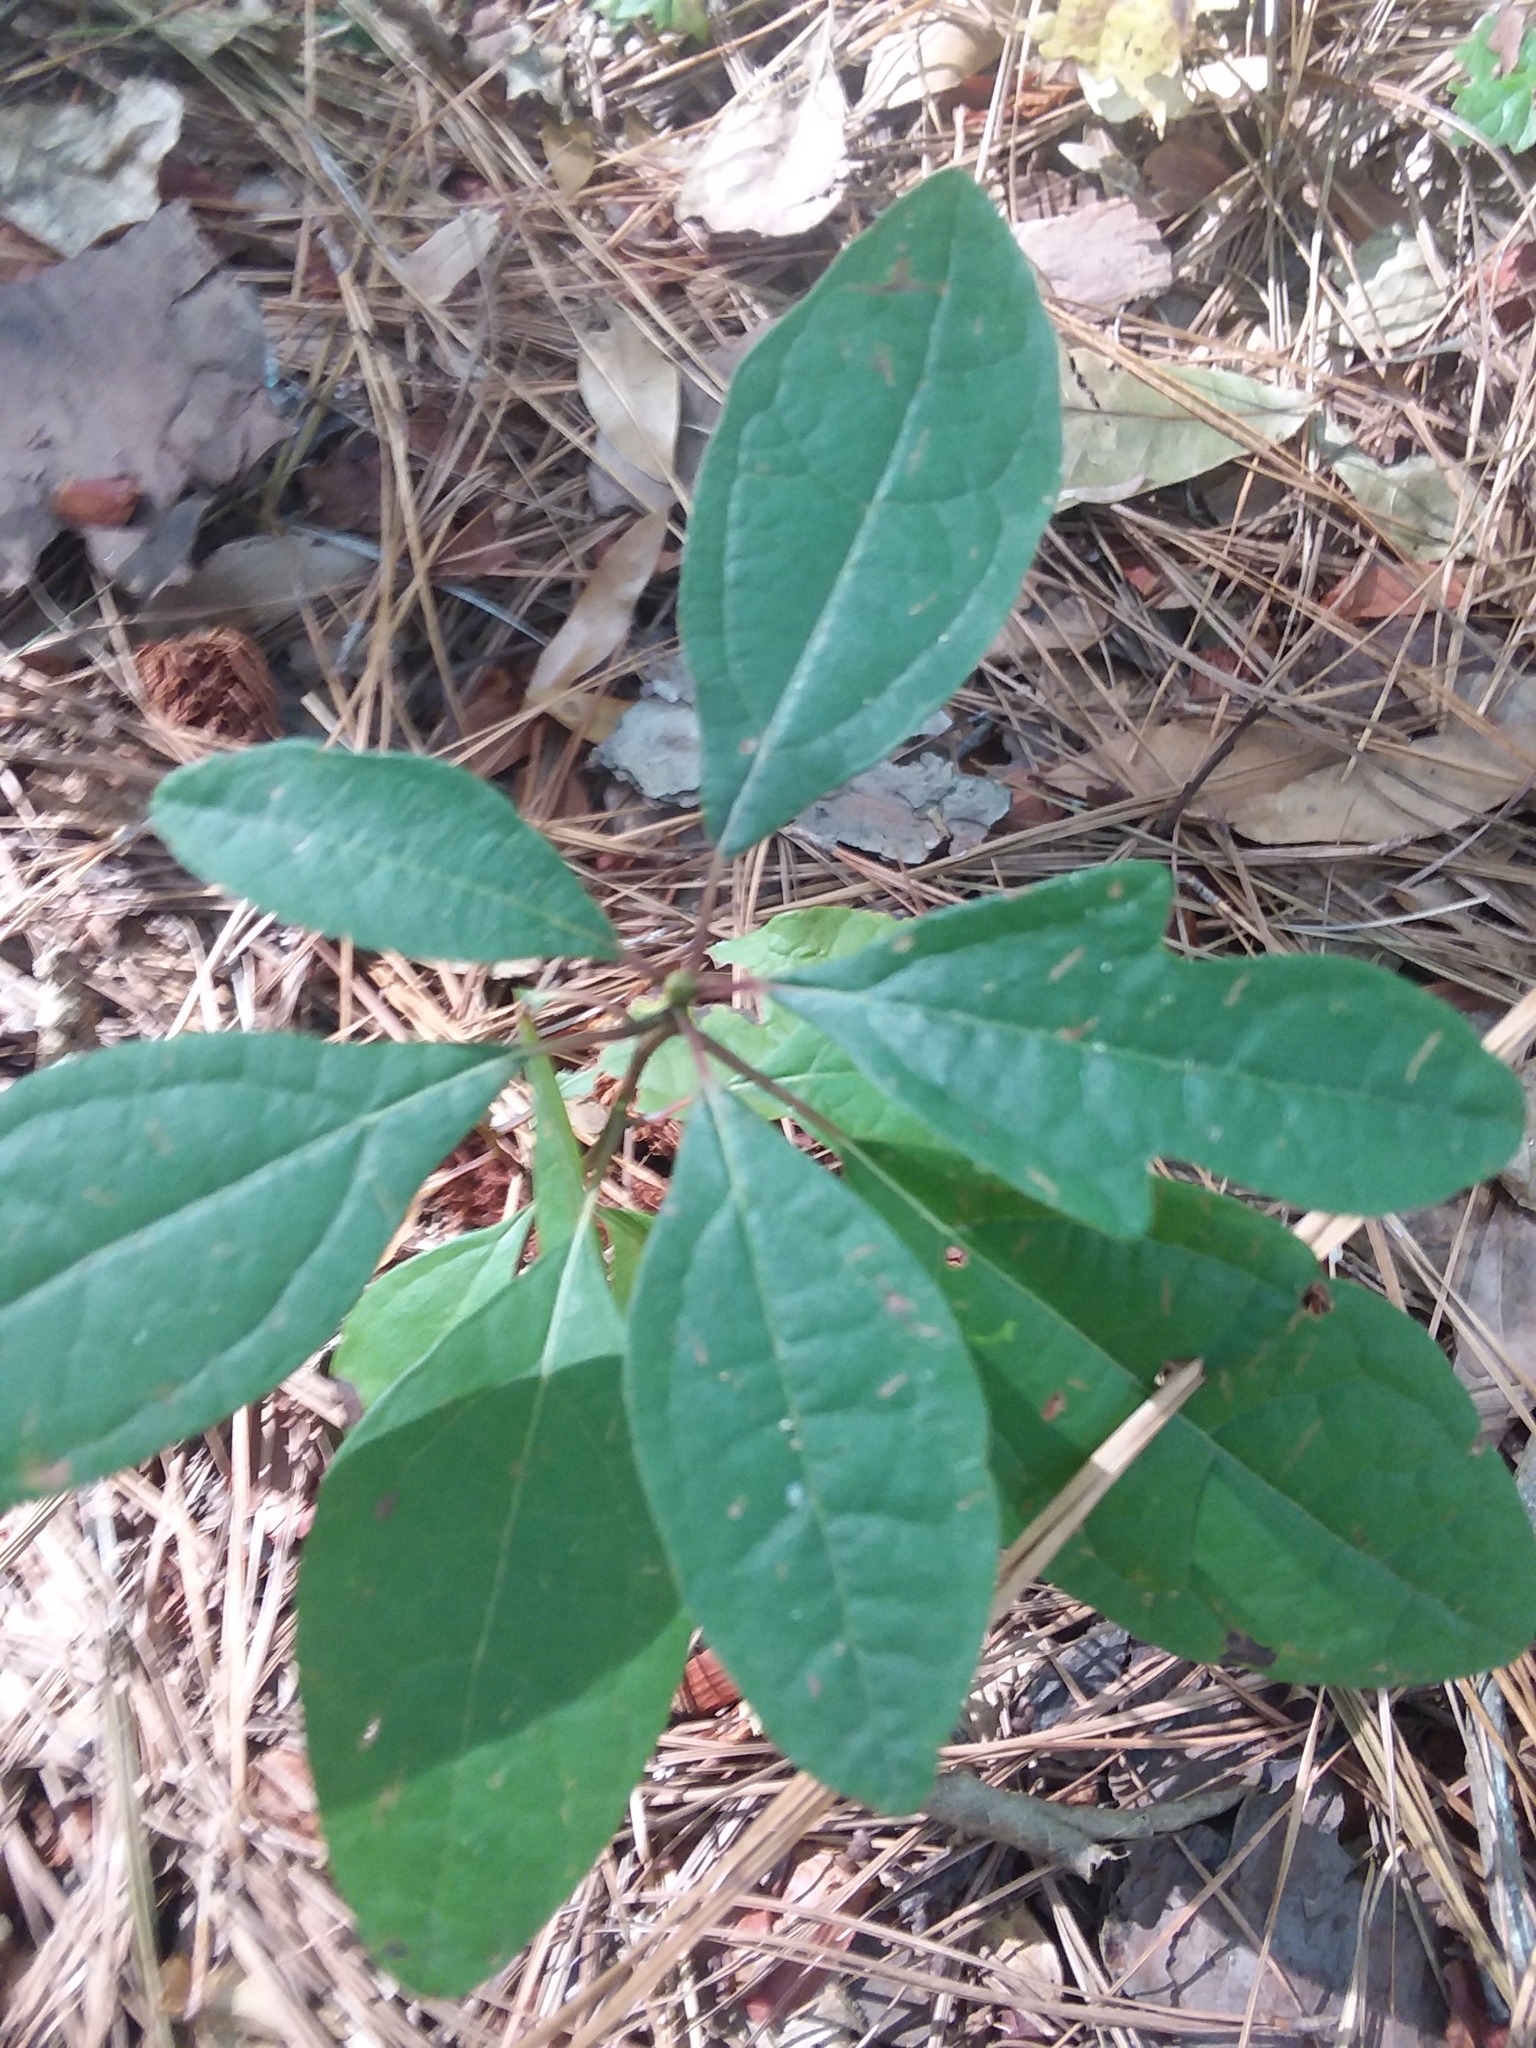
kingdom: Plantae
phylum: Tracheophyta
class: Magnoliopsida
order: Laurales
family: Lauraceae
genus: Sassafras
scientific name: Sassafras albidum
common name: Sassafras
